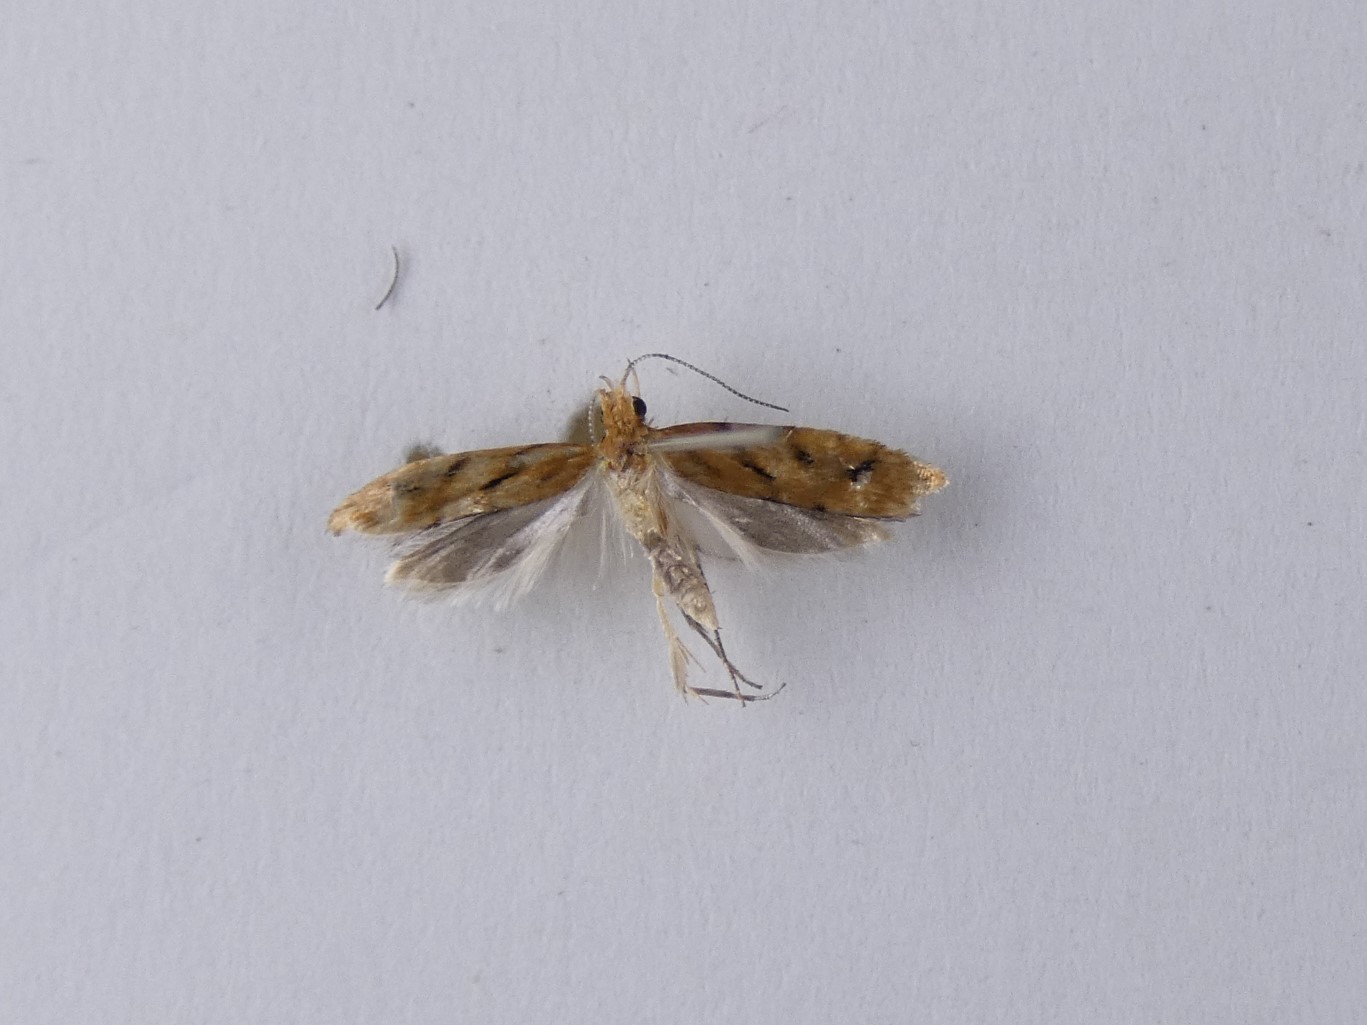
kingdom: Animalia
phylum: Arthropoda
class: Insecta
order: Lepidoptera
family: Glyphipterigidae
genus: Chrysorthenches
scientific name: Chrysorthenches virgata
